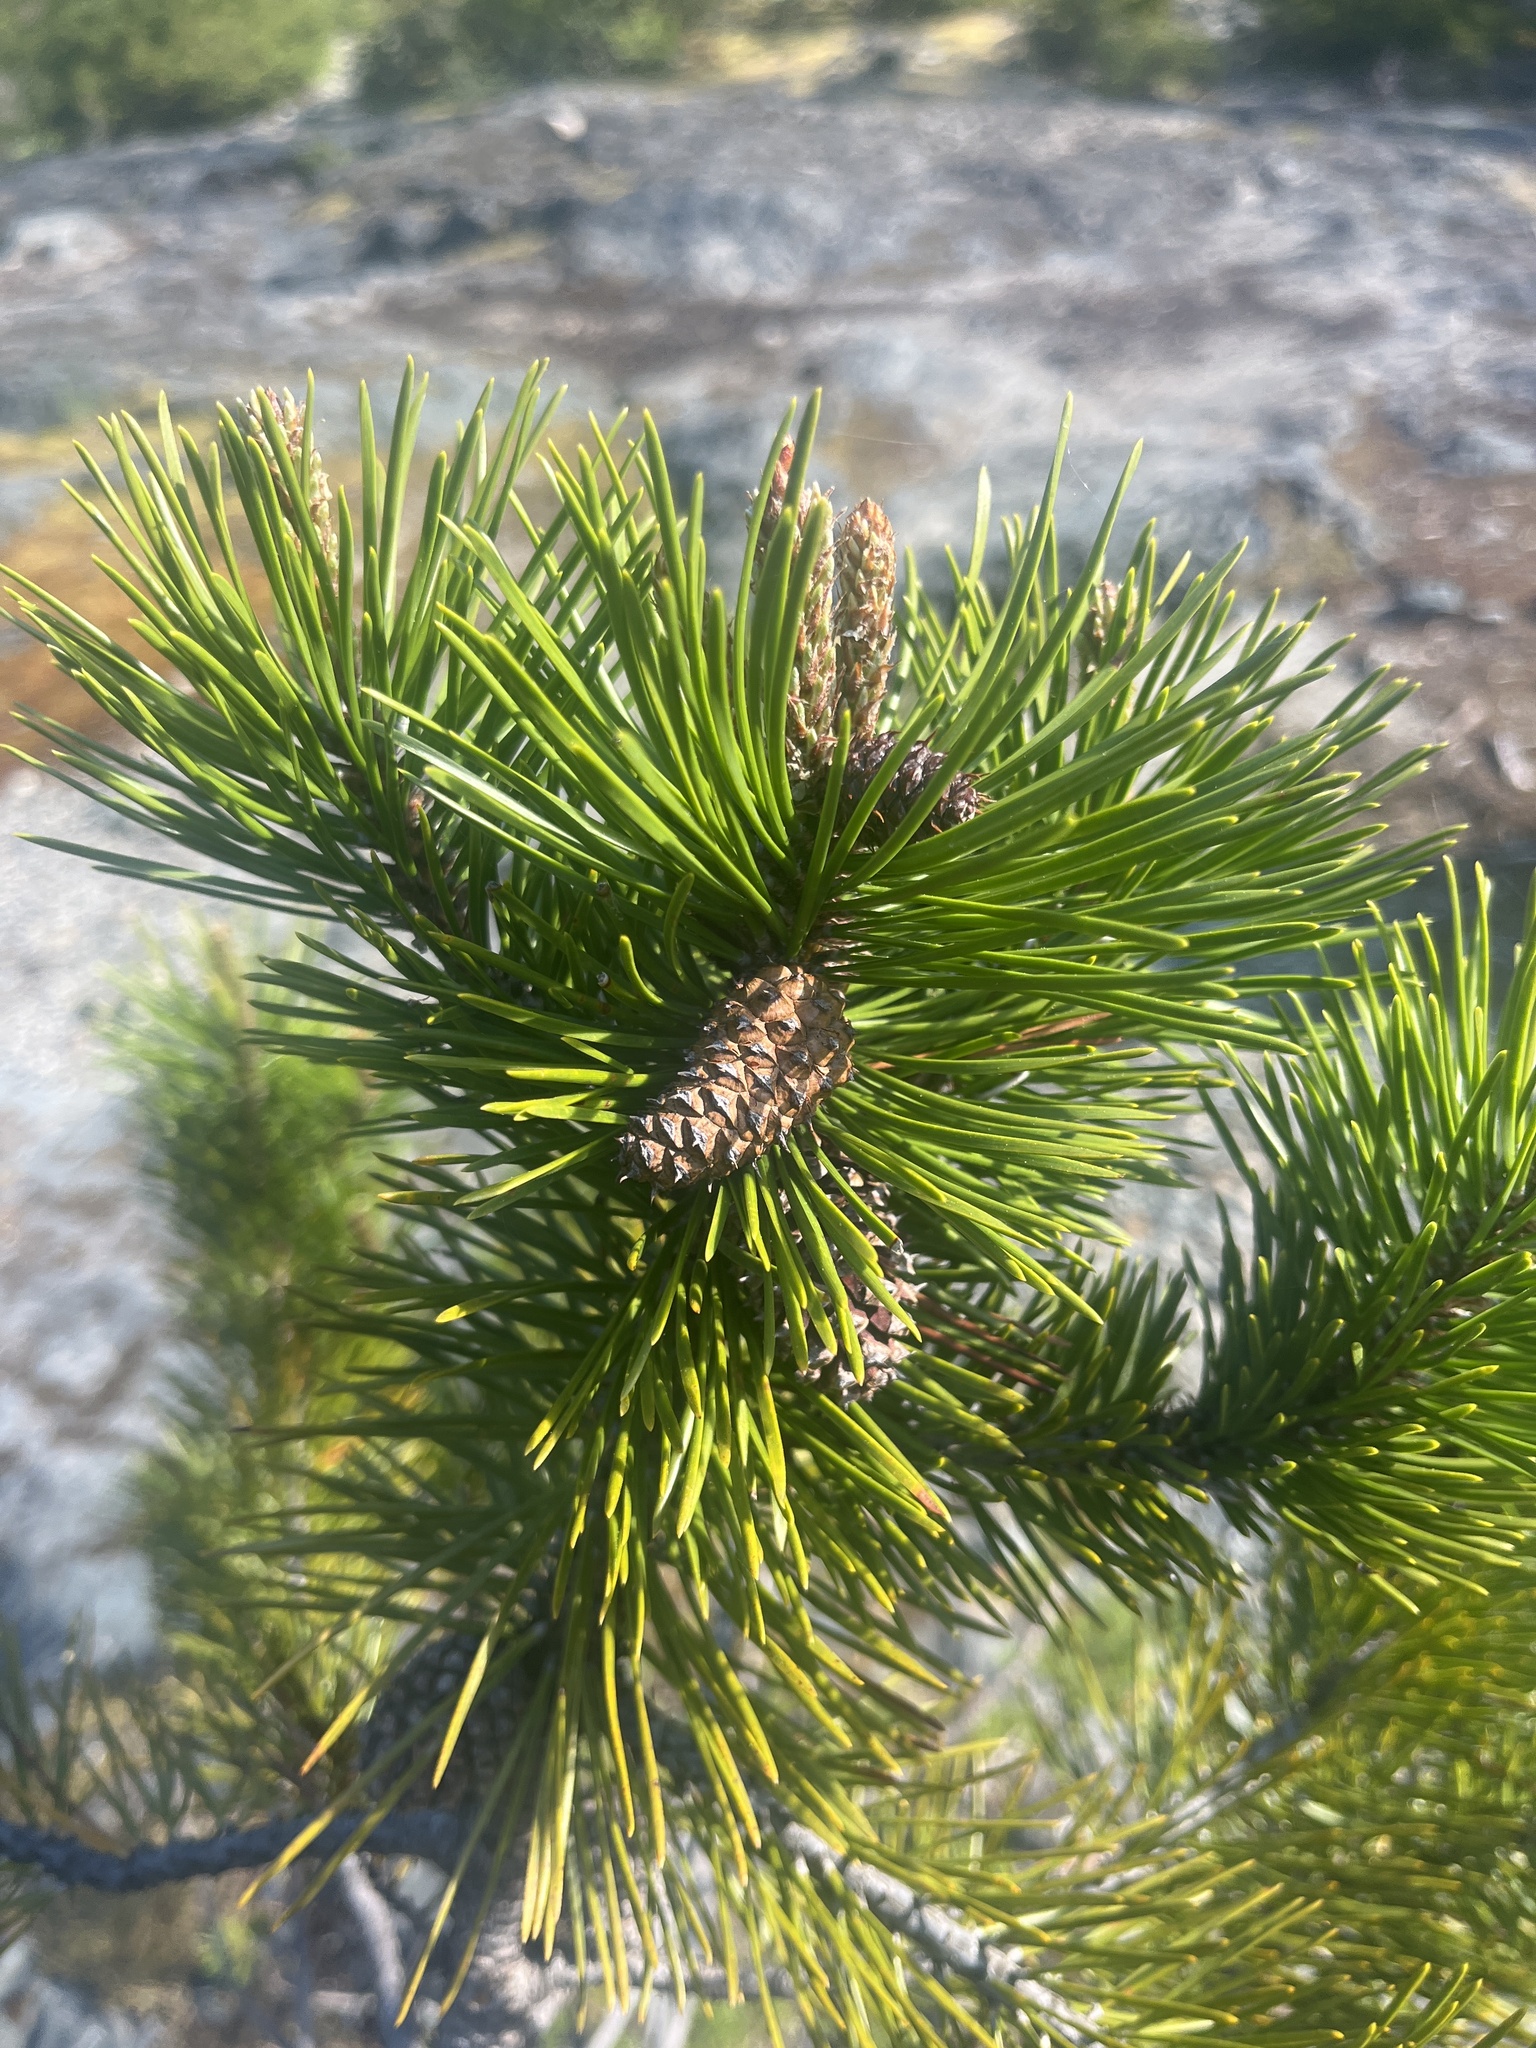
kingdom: Plantae
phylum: Tracheophyta
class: Pinopsida
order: Pinales
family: Pinaceae
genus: Pinus
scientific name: Pinus contorta
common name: Lodgepole pine
